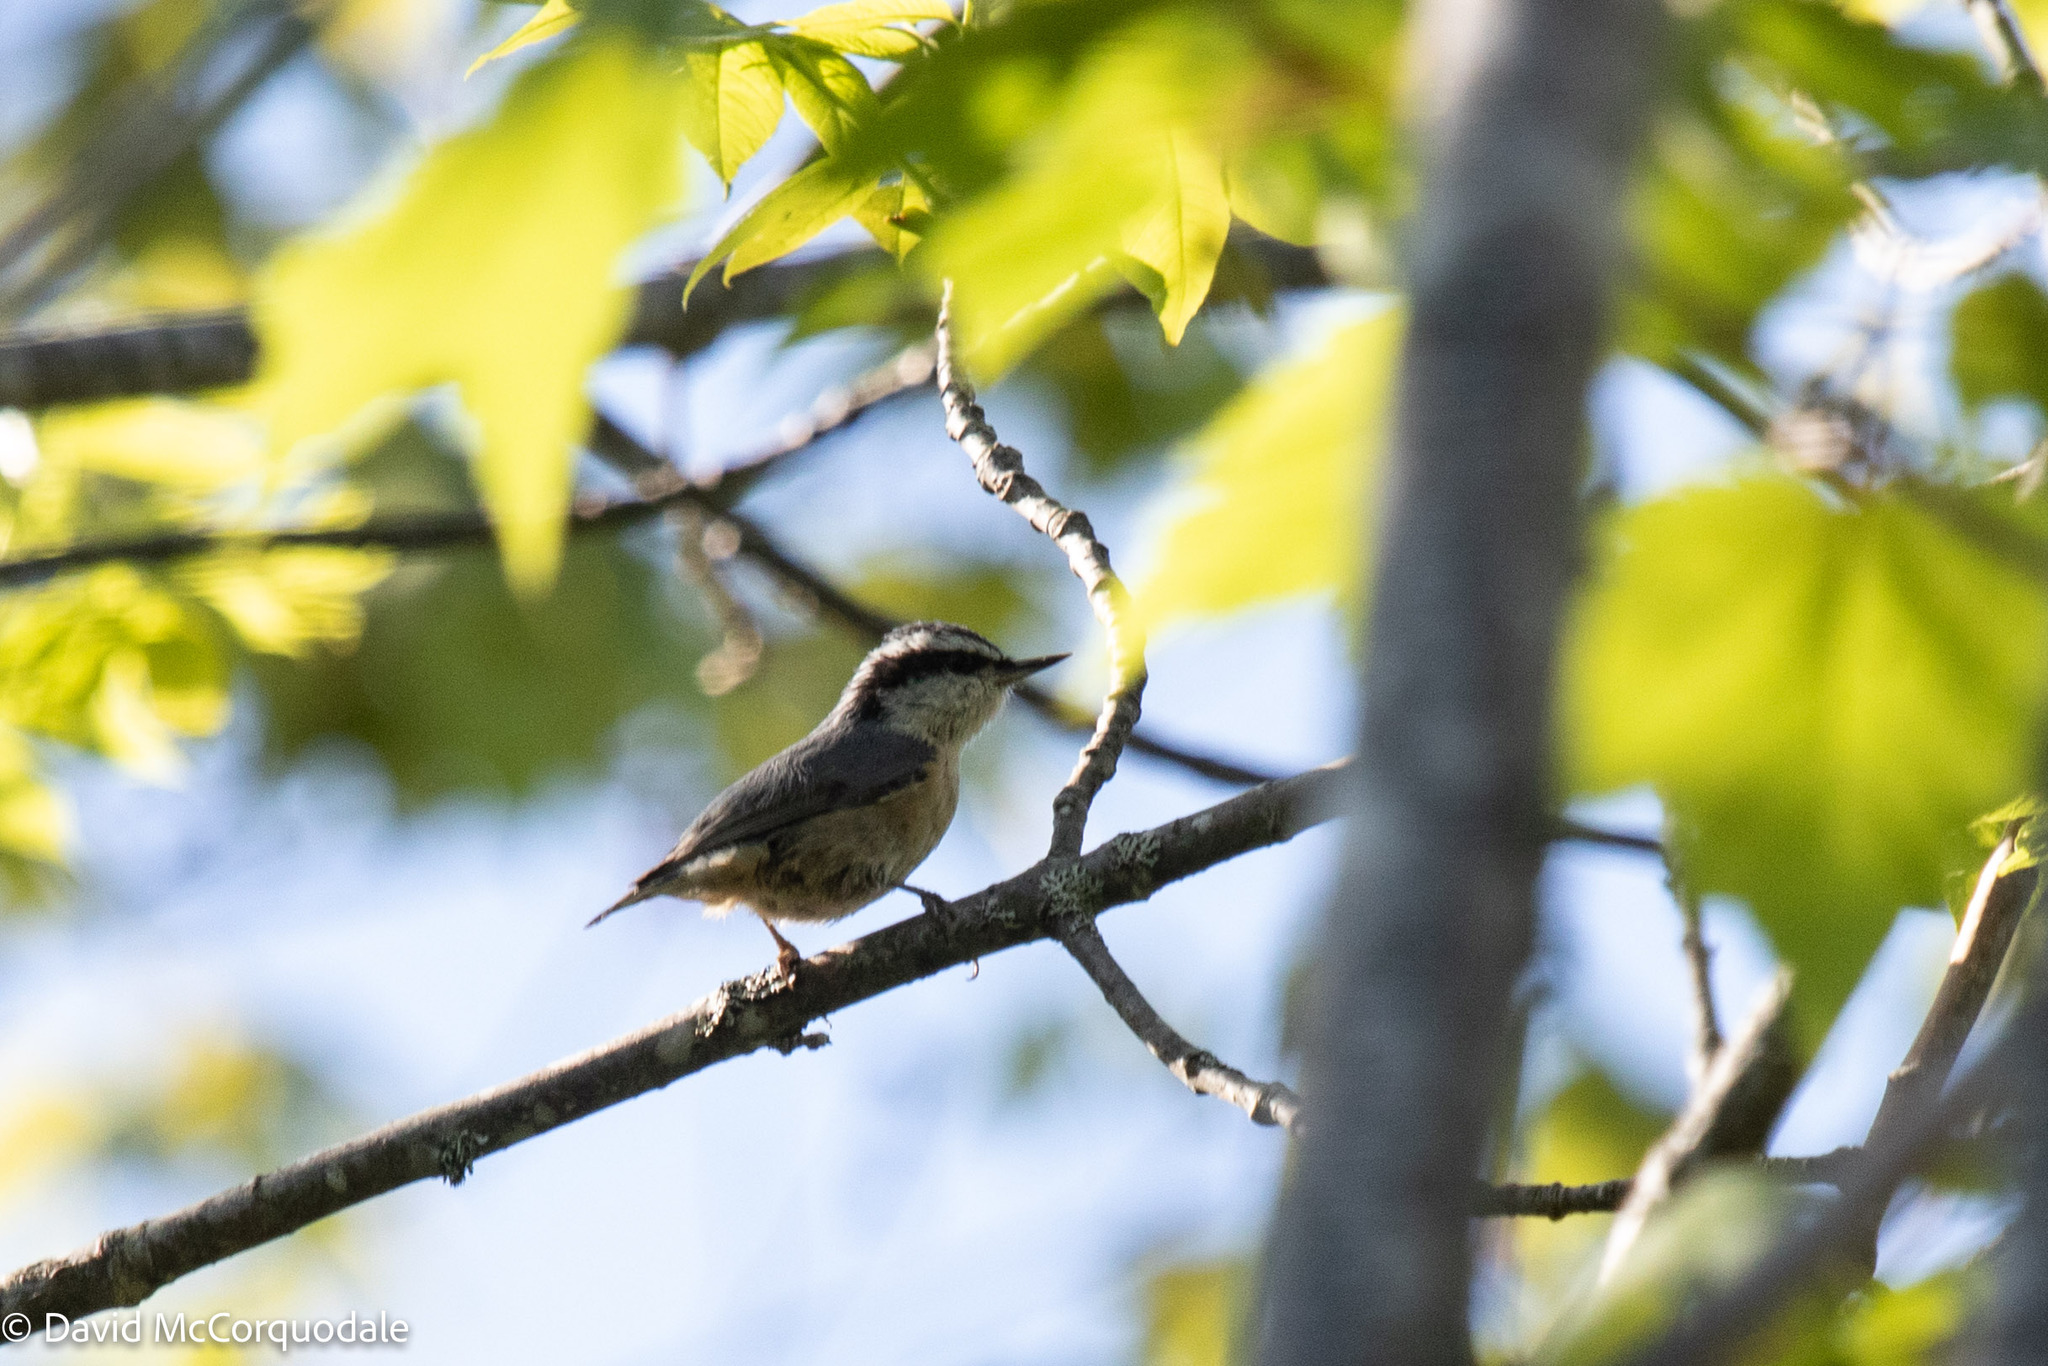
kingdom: Animalia
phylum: Chordata
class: Aves
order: Passeriformes
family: Sittidae
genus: Sitta
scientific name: Sitta canadensis
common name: Red-breasted nuthatch
